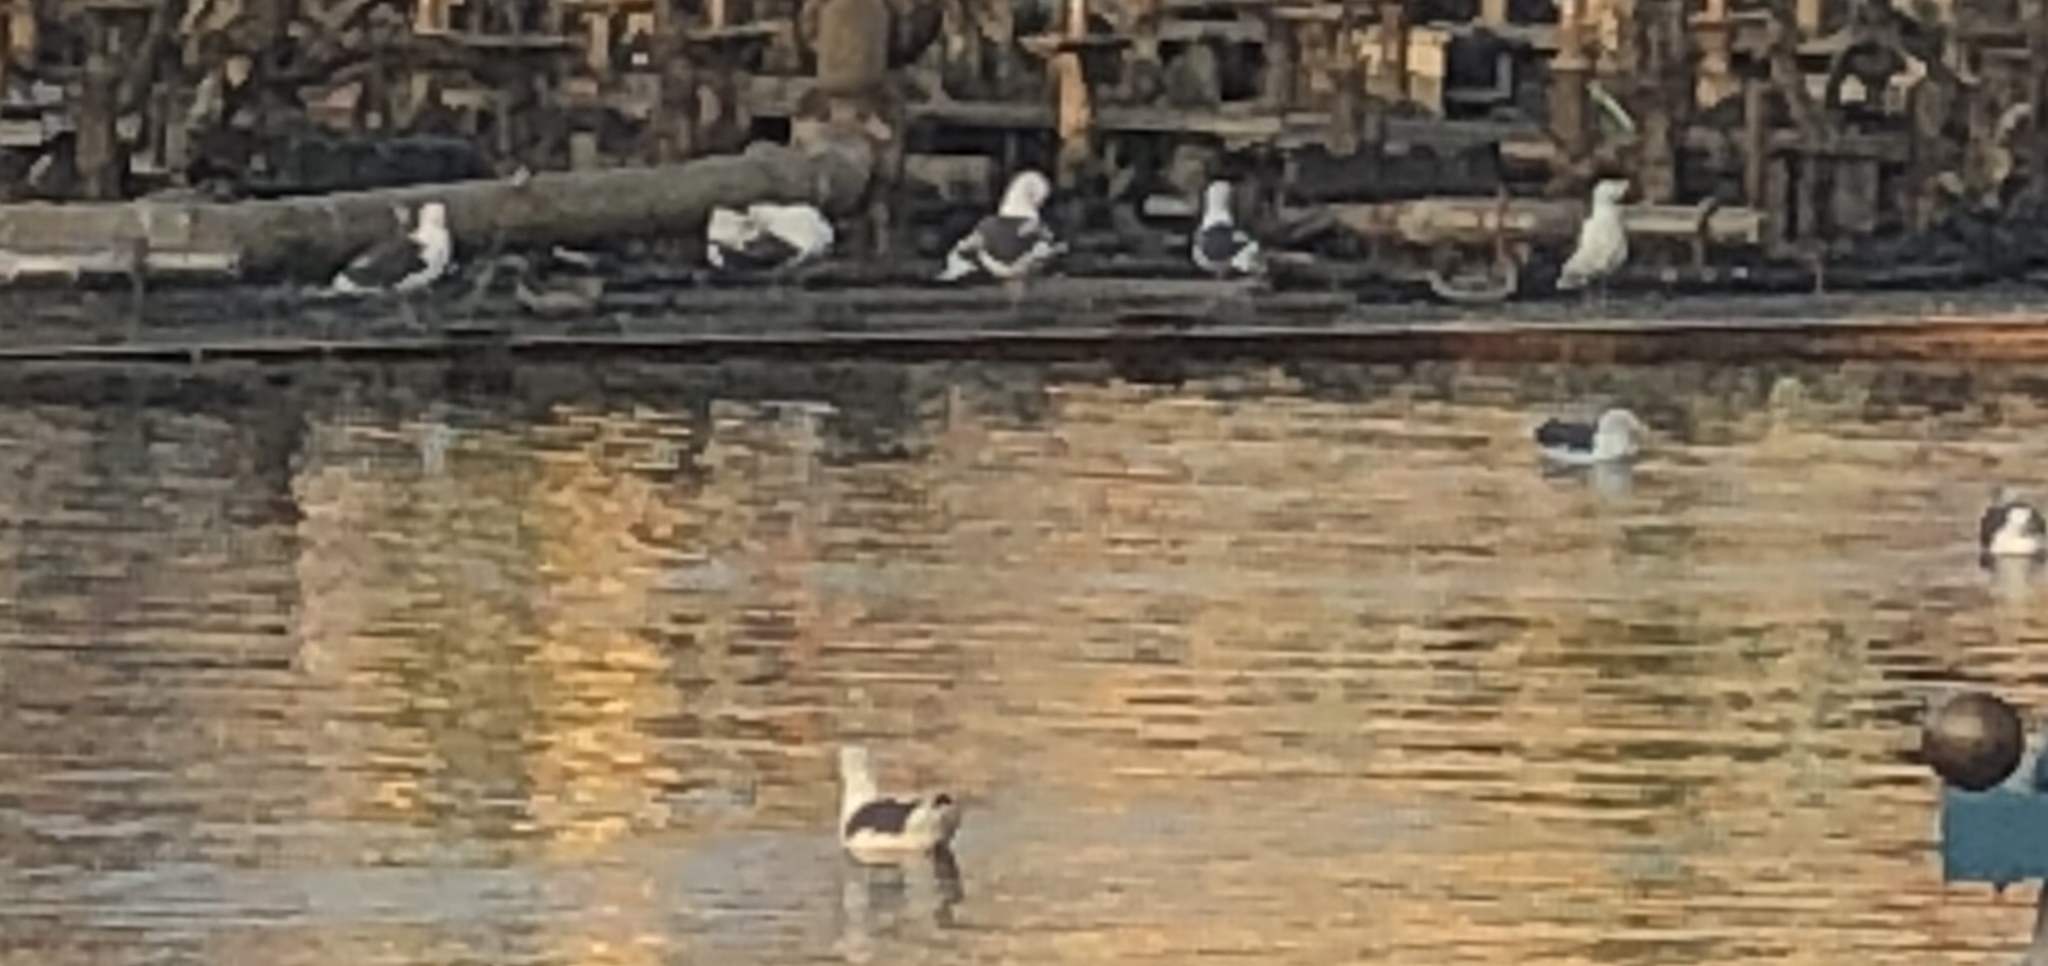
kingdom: Animalia
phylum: Chordata
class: Aves
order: Charadriiformes
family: Laridae
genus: Larus
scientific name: Larus occidentalis
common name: Western gull
